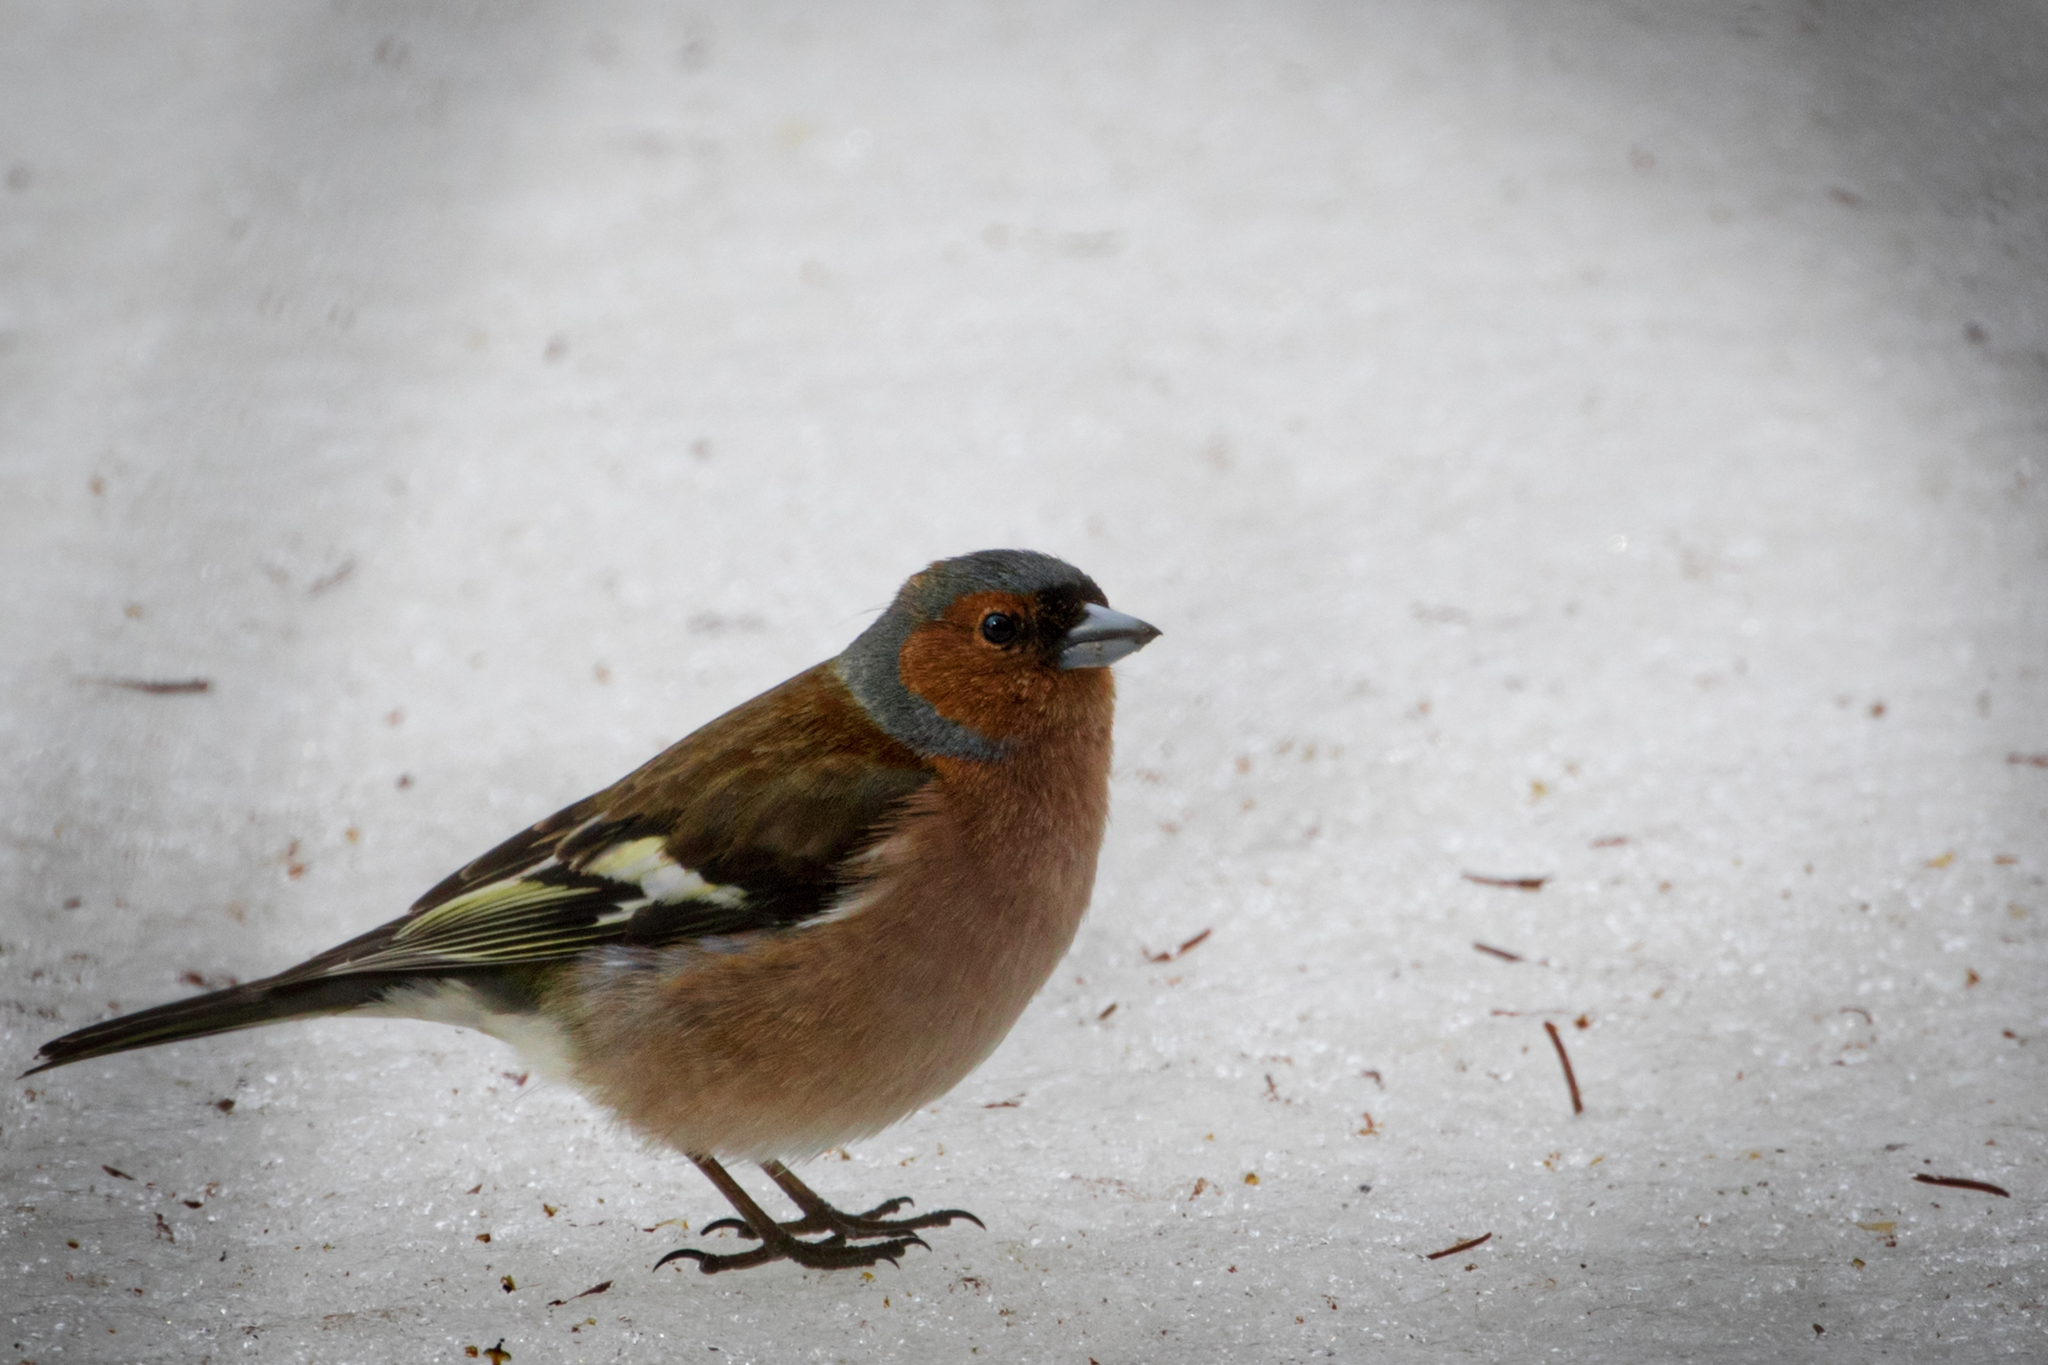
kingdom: Animalia
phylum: Chordata
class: Aves
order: Passeriformes
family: Fringillidae
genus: Fringilla
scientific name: Fringilla coelebs
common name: Common chaffinch
